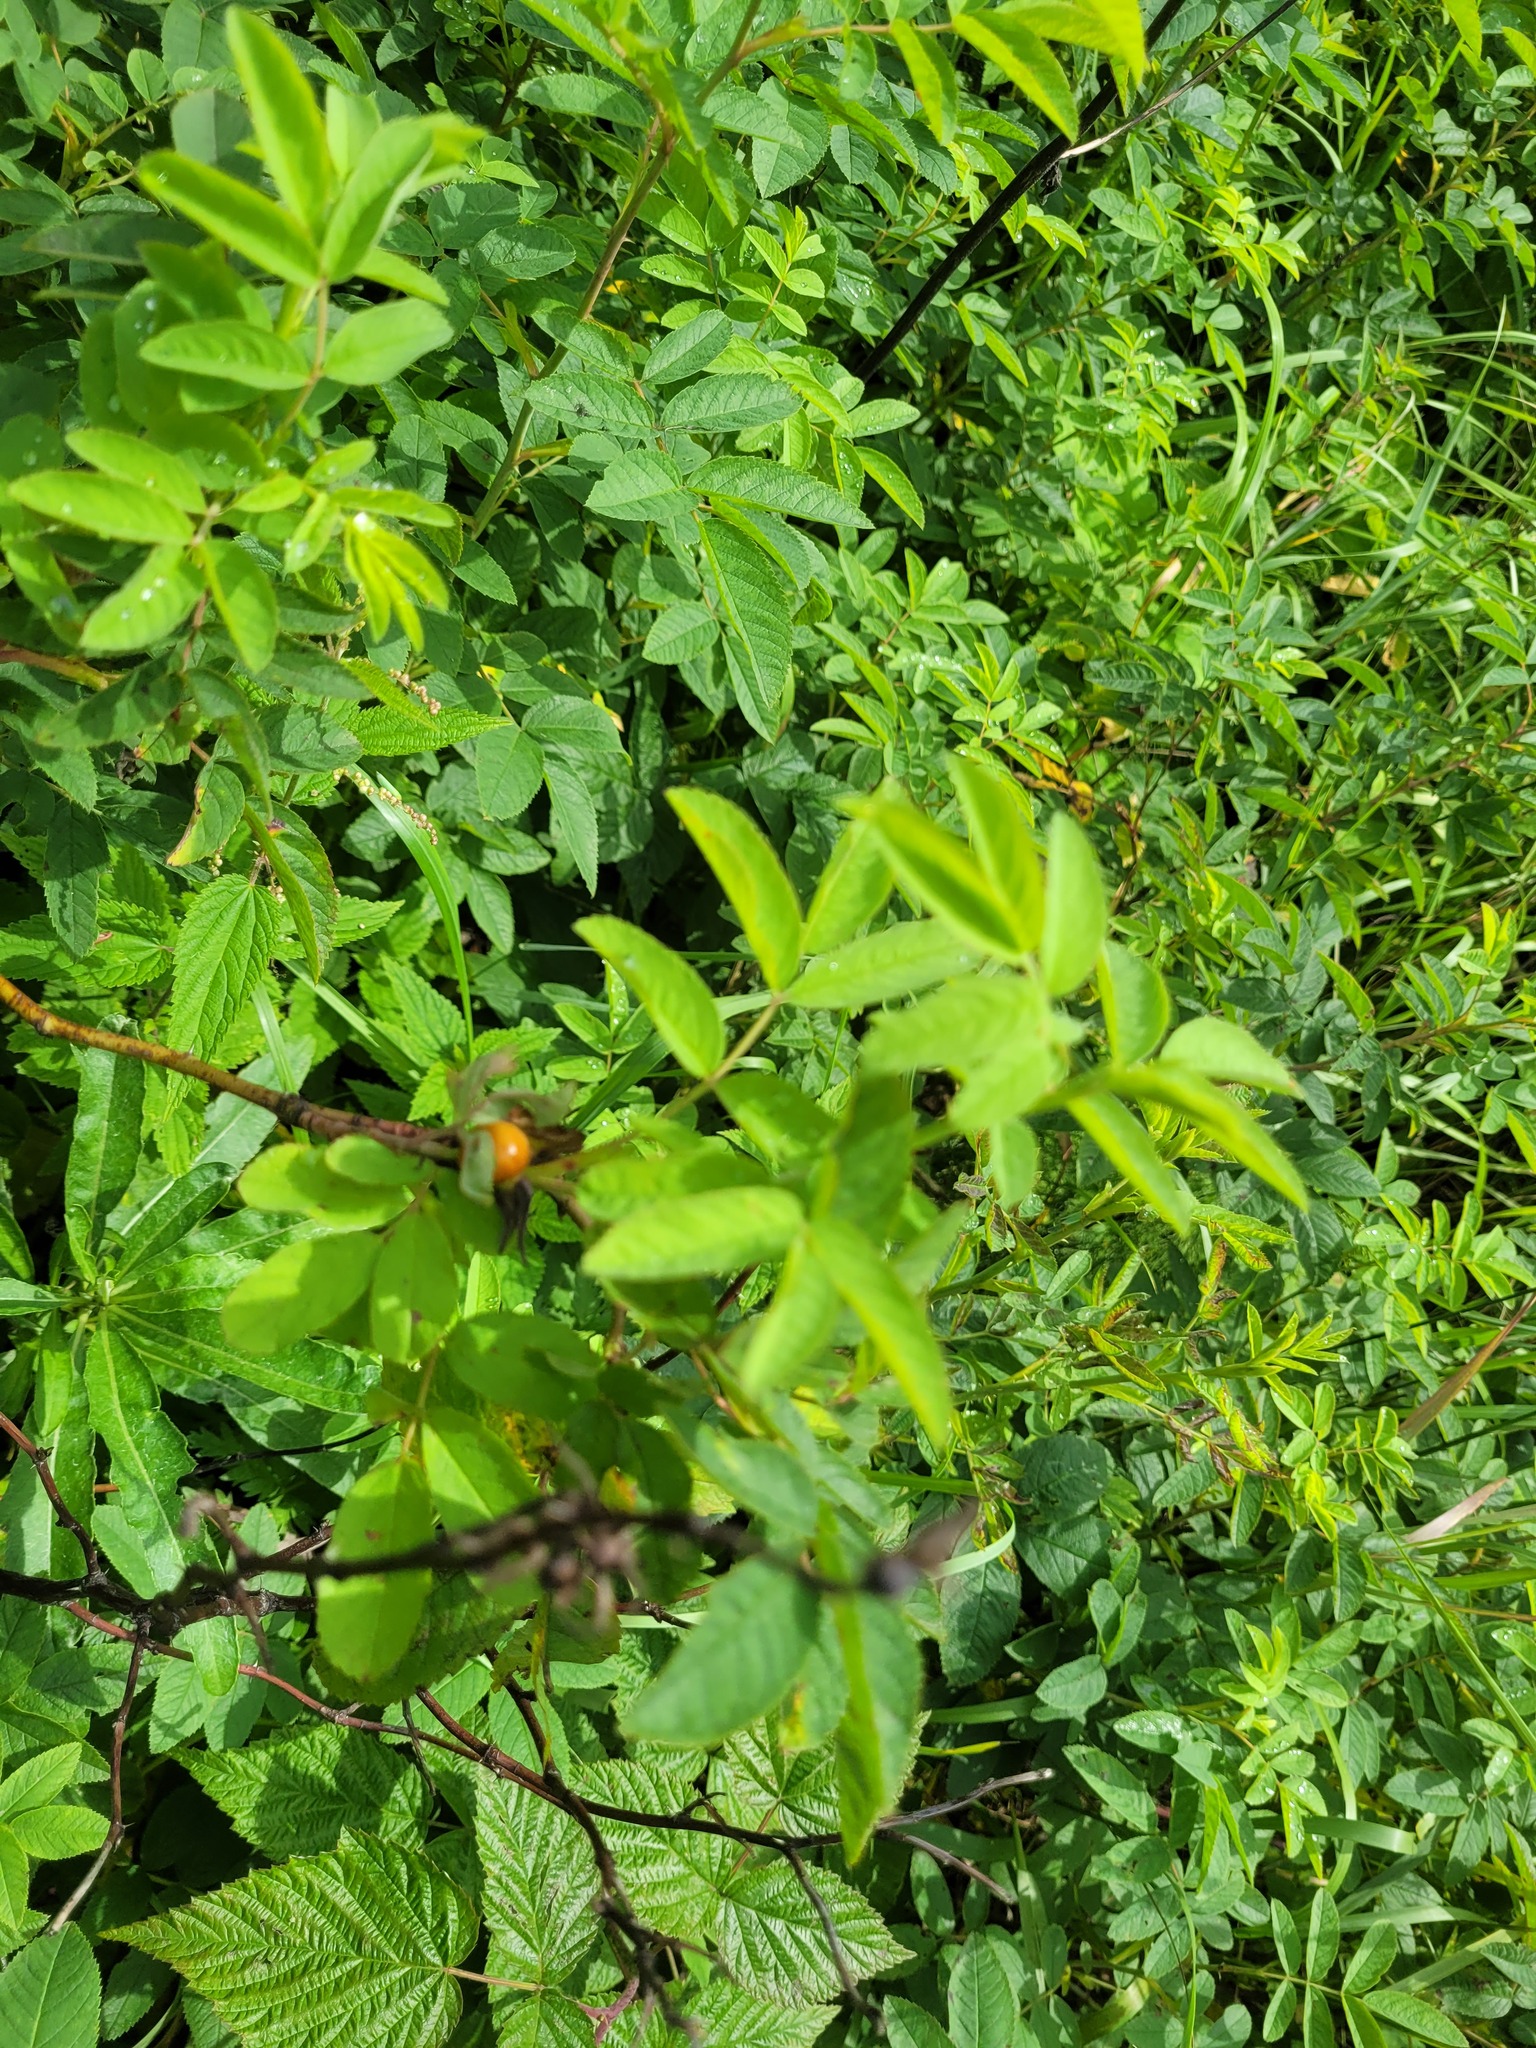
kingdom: Plantae
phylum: Tracheophyta
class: Magnoliopsida
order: Rosales
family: Rosaceae
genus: Rosa
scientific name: Rosa majalis
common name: Cinnamon rose
